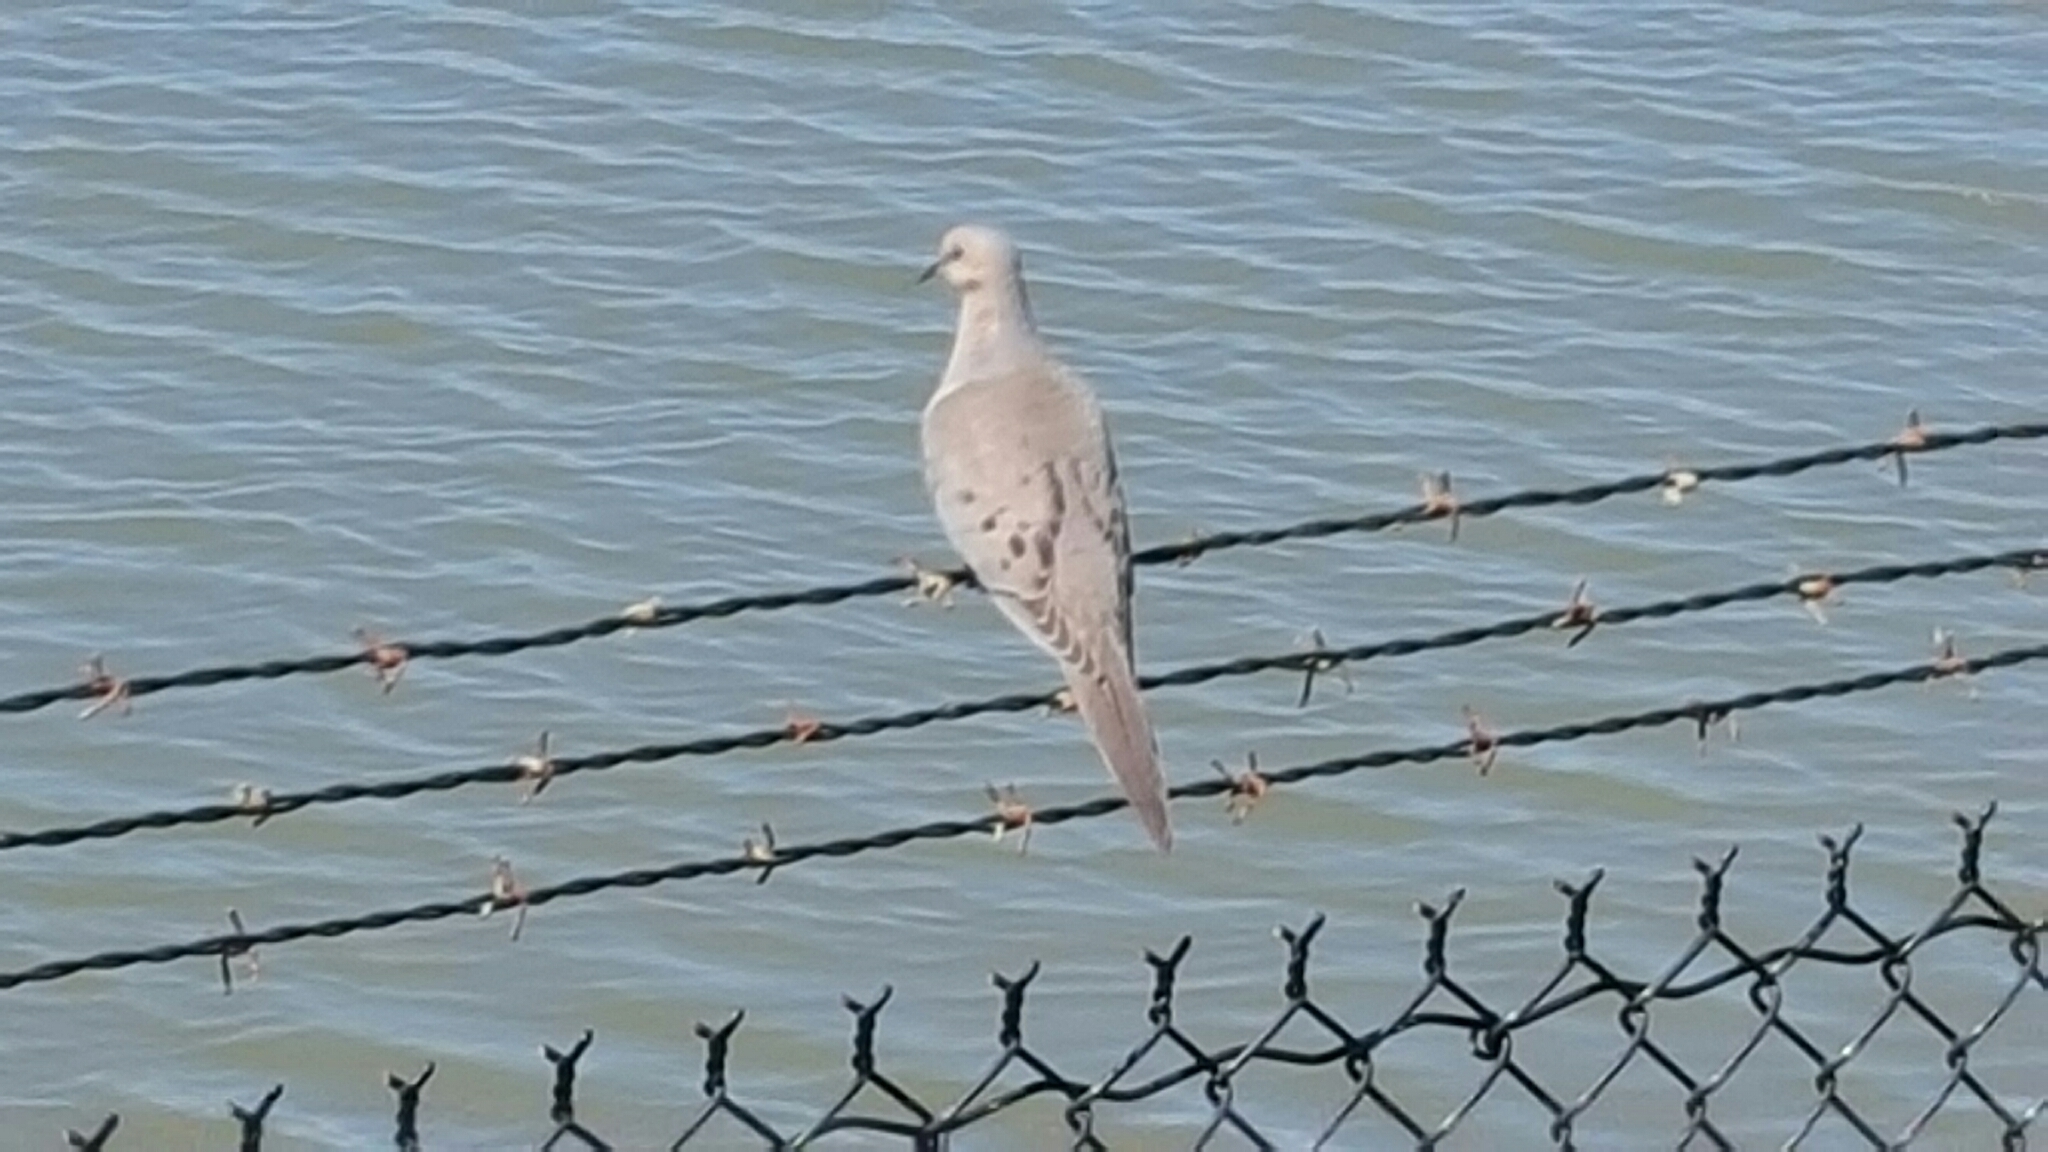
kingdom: Animalia
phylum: Chordata
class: Aves
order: Columbiformes
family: Columbidae
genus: Zenaida
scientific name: Zenaida macroura
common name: Mourning dove
